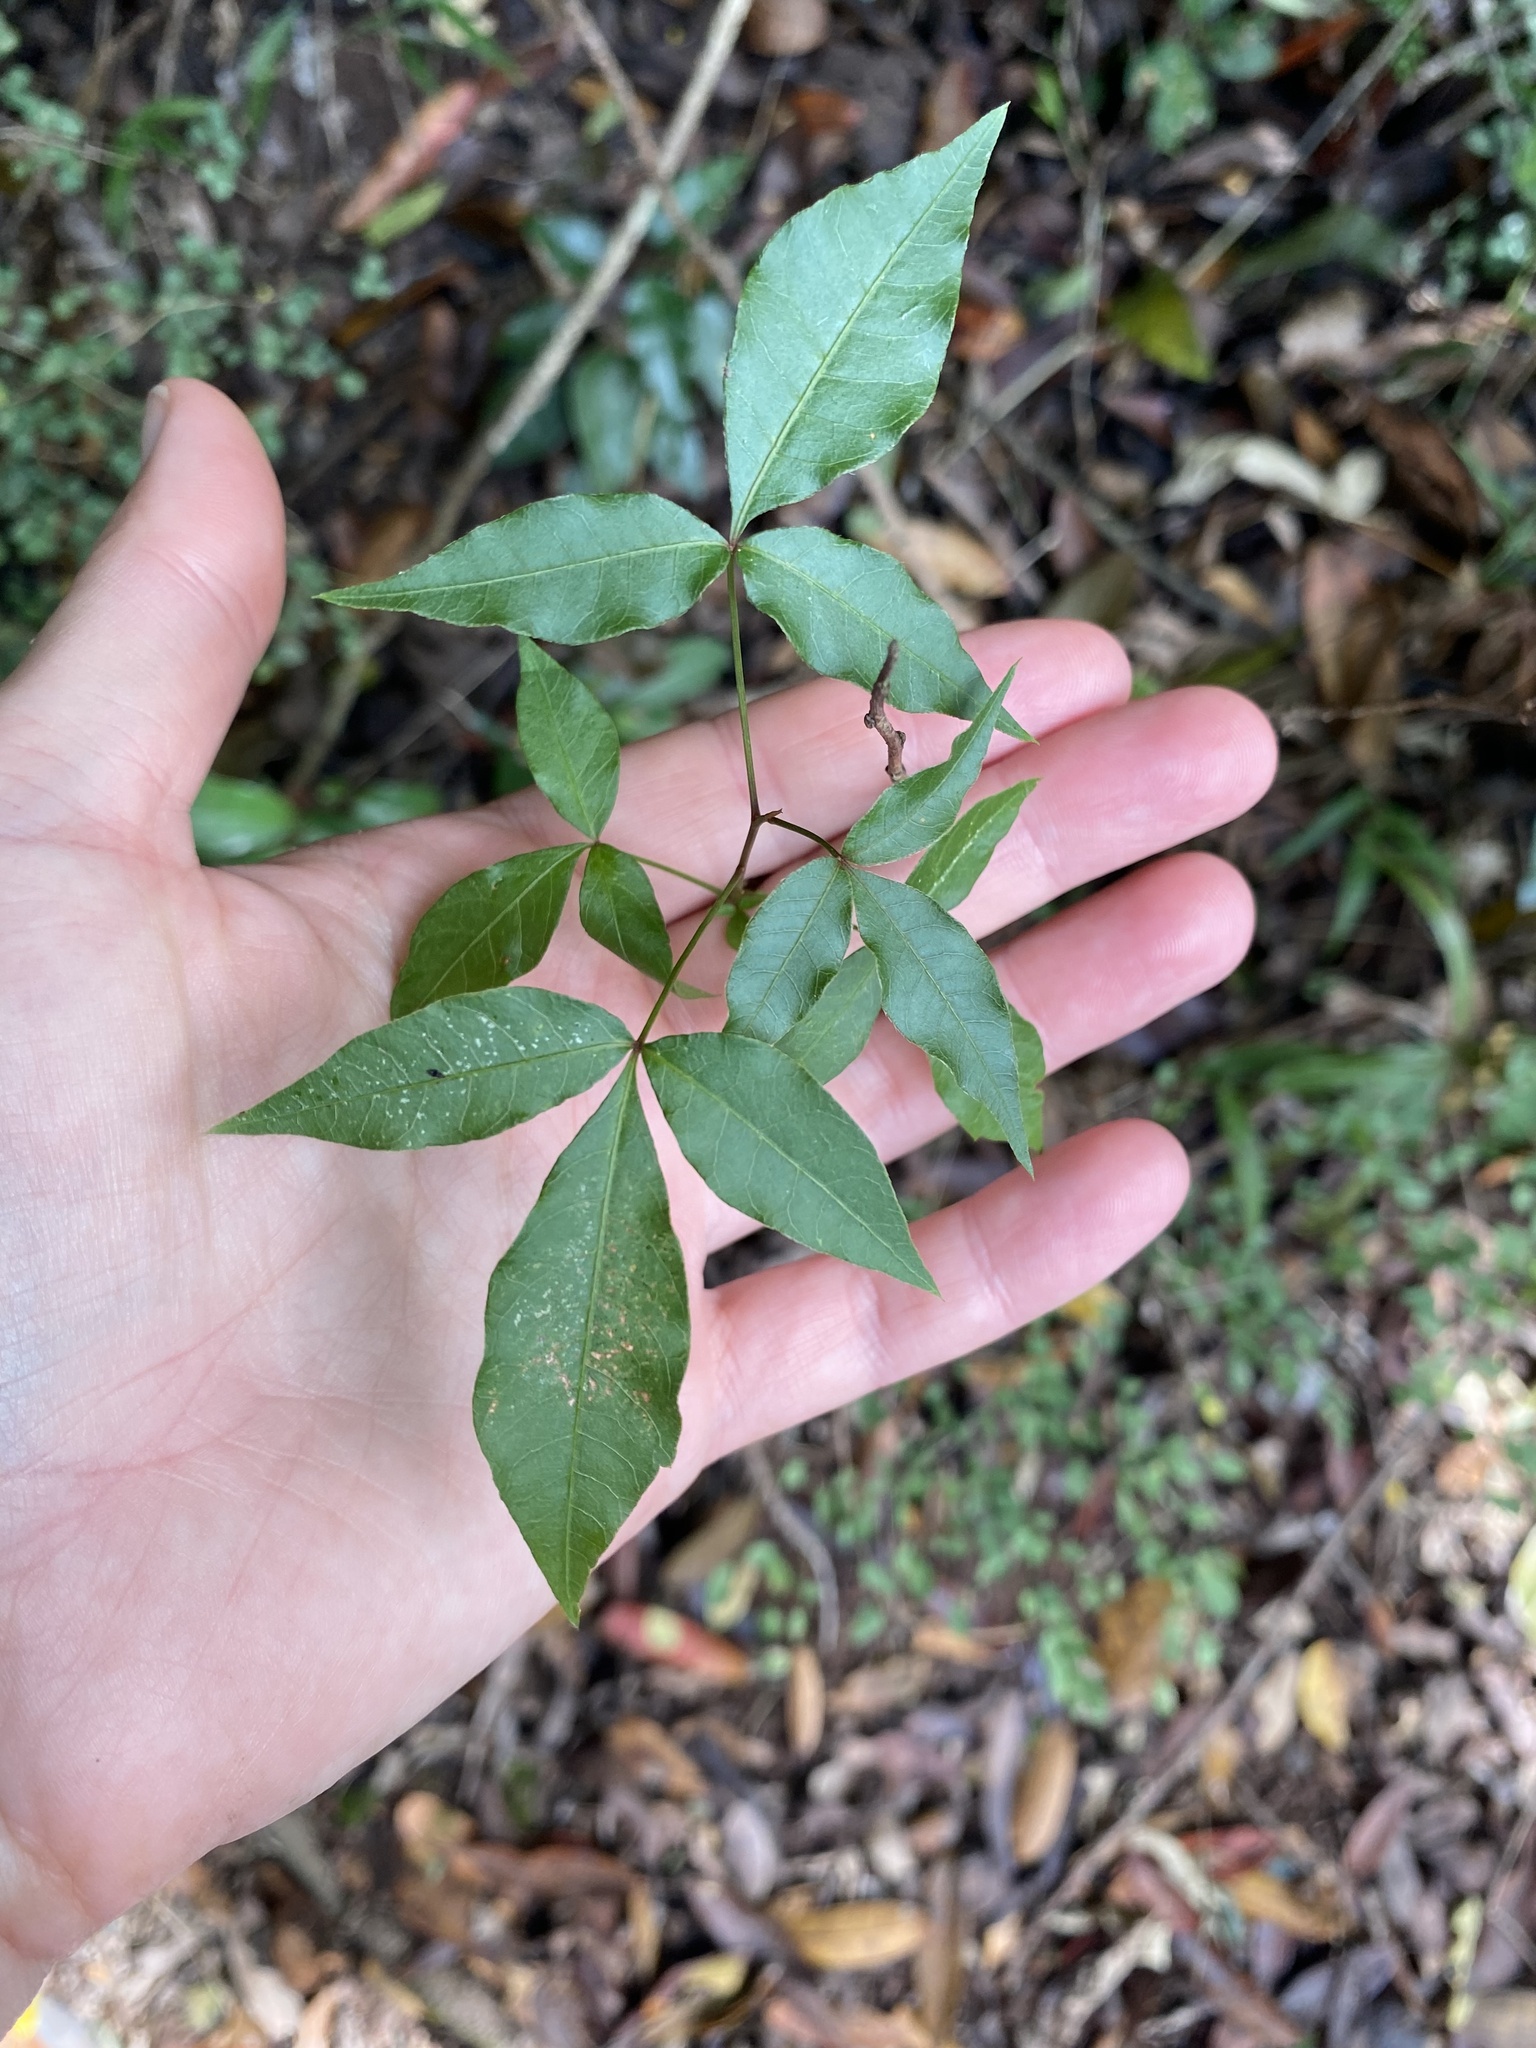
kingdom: Plantae
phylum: Tracheophyta
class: Magnoliopsida
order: Sapindales
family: Anacardiaceae
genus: Searsia
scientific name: Searsia chirindensis
